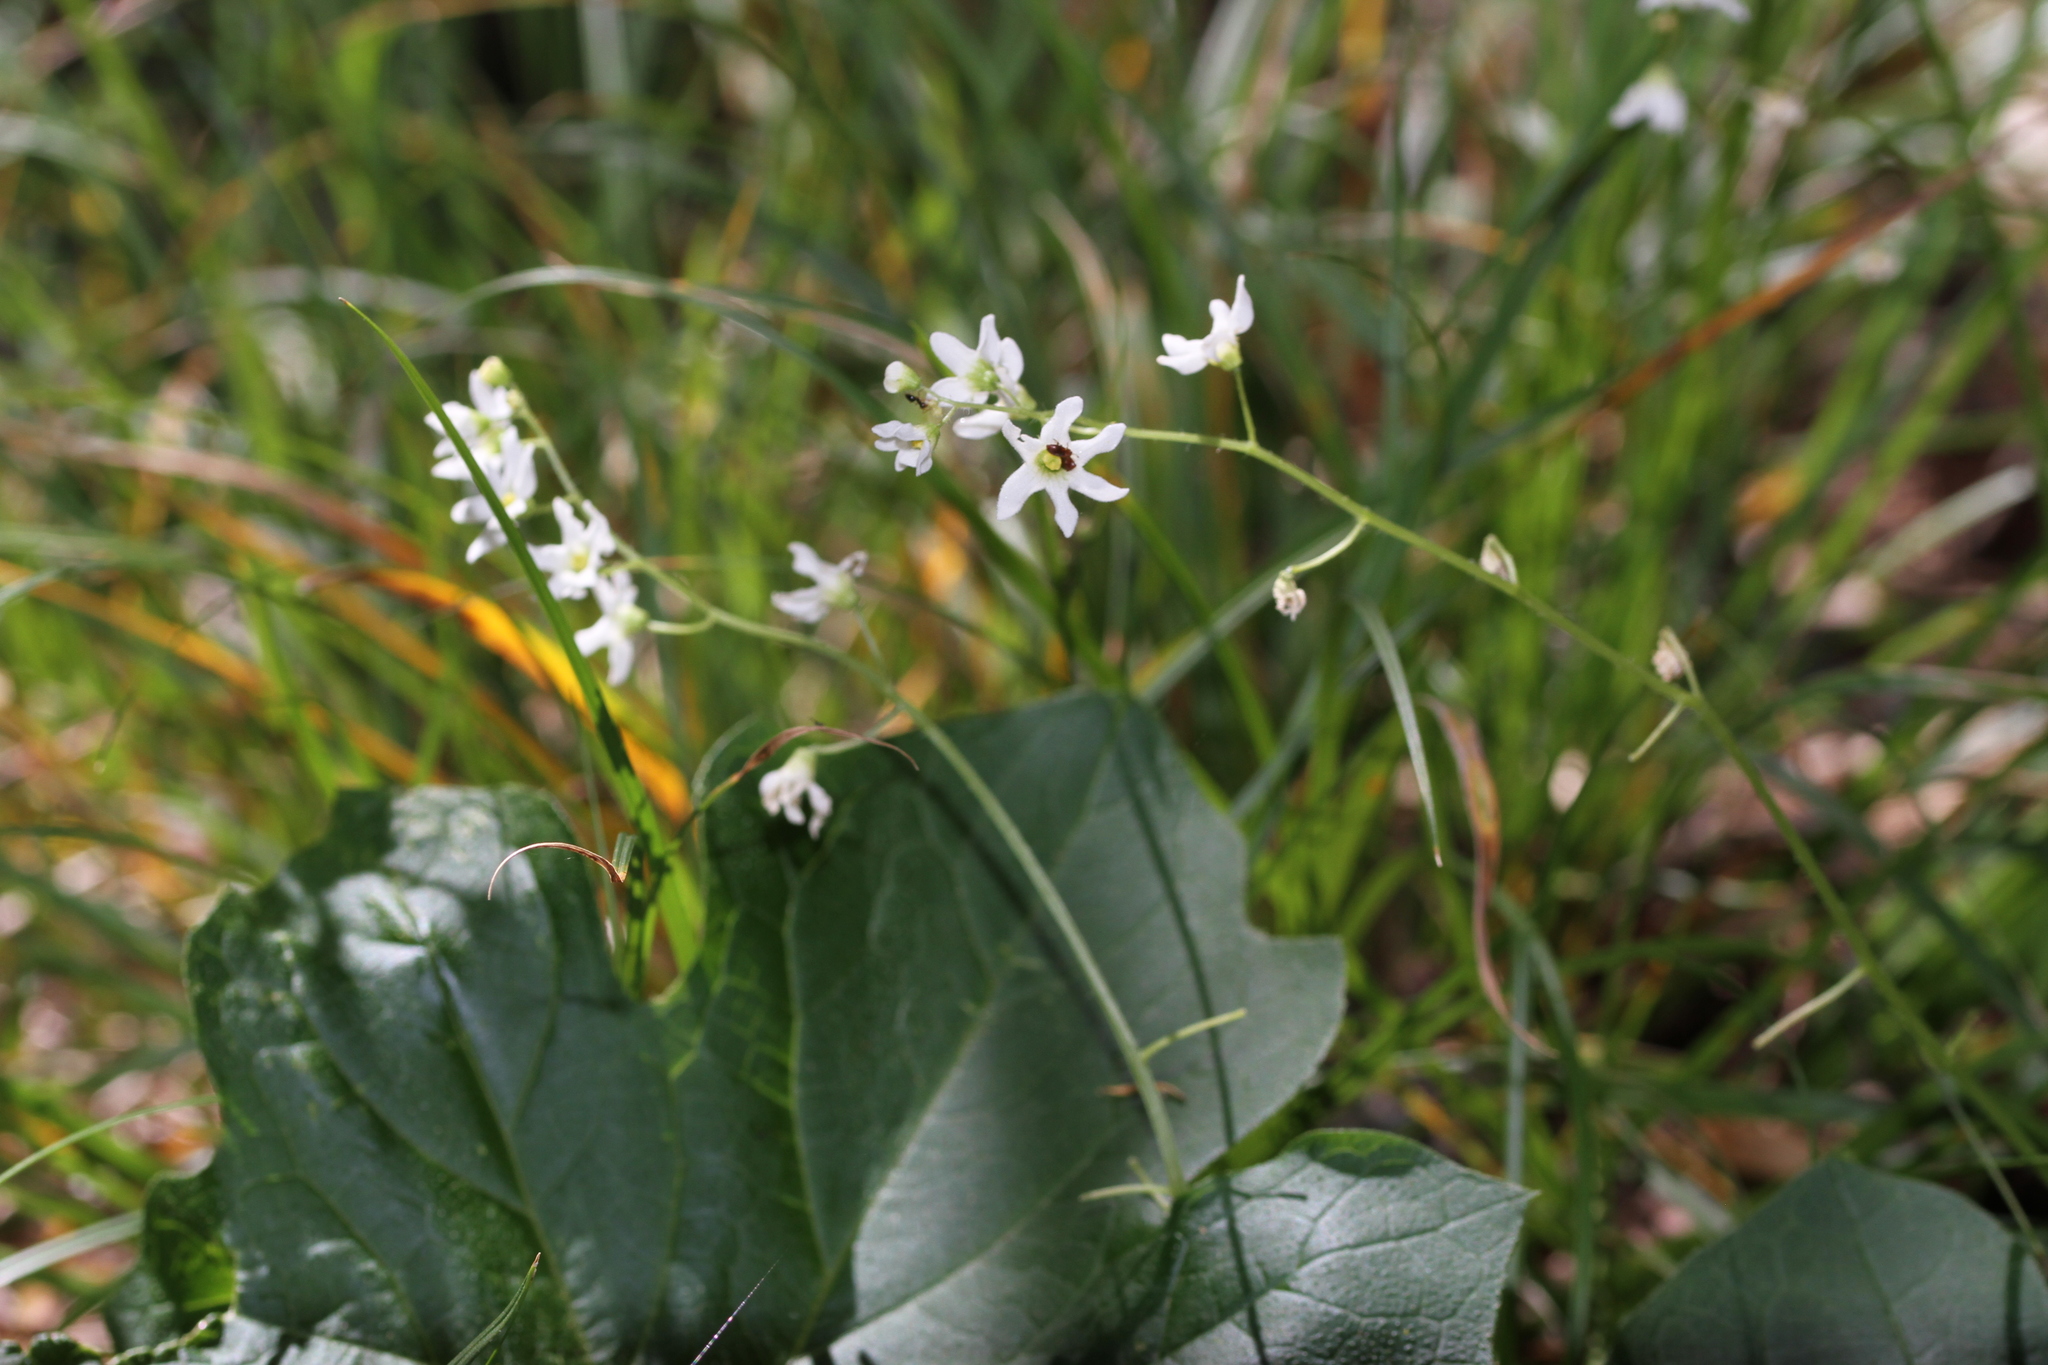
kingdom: Plantae
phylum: Tracheophyta
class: Magnoliopsida
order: Cucurbitales
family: Cucurbitaceae
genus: Marah
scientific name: Marah oregana
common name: Coastal manroot
